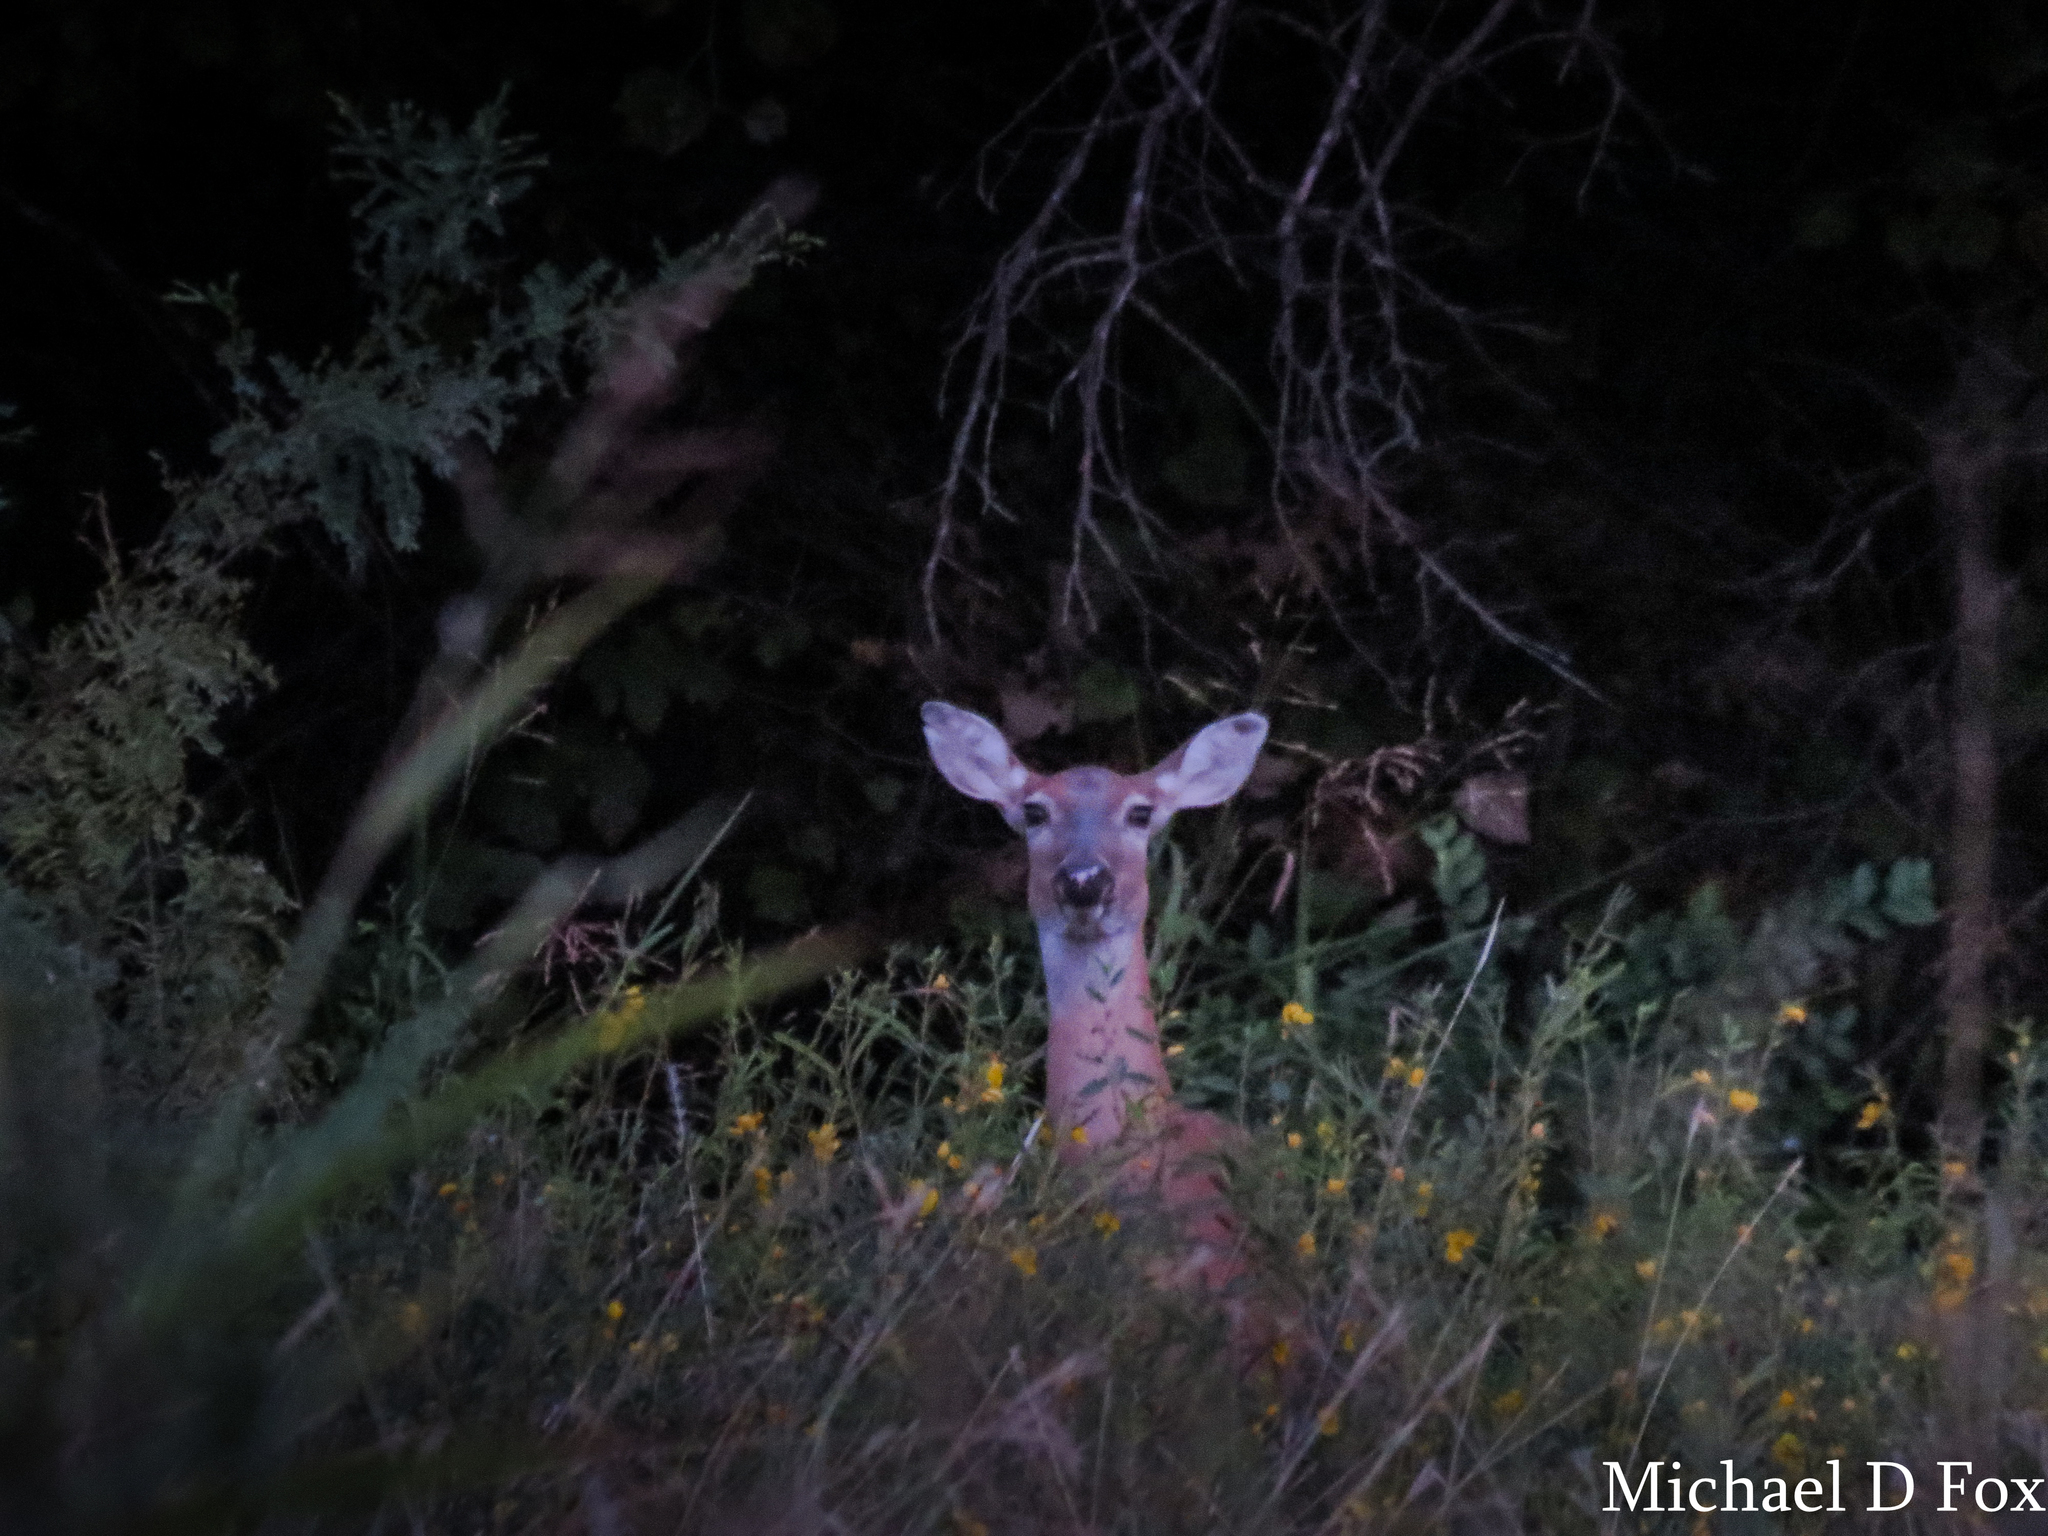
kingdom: Animalia
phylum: Chordata
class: Mammalia
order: Artiodactyla
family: Cervidae
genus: Odocoileus
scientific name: Odocoileus virginianus
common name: White-tailed deer
